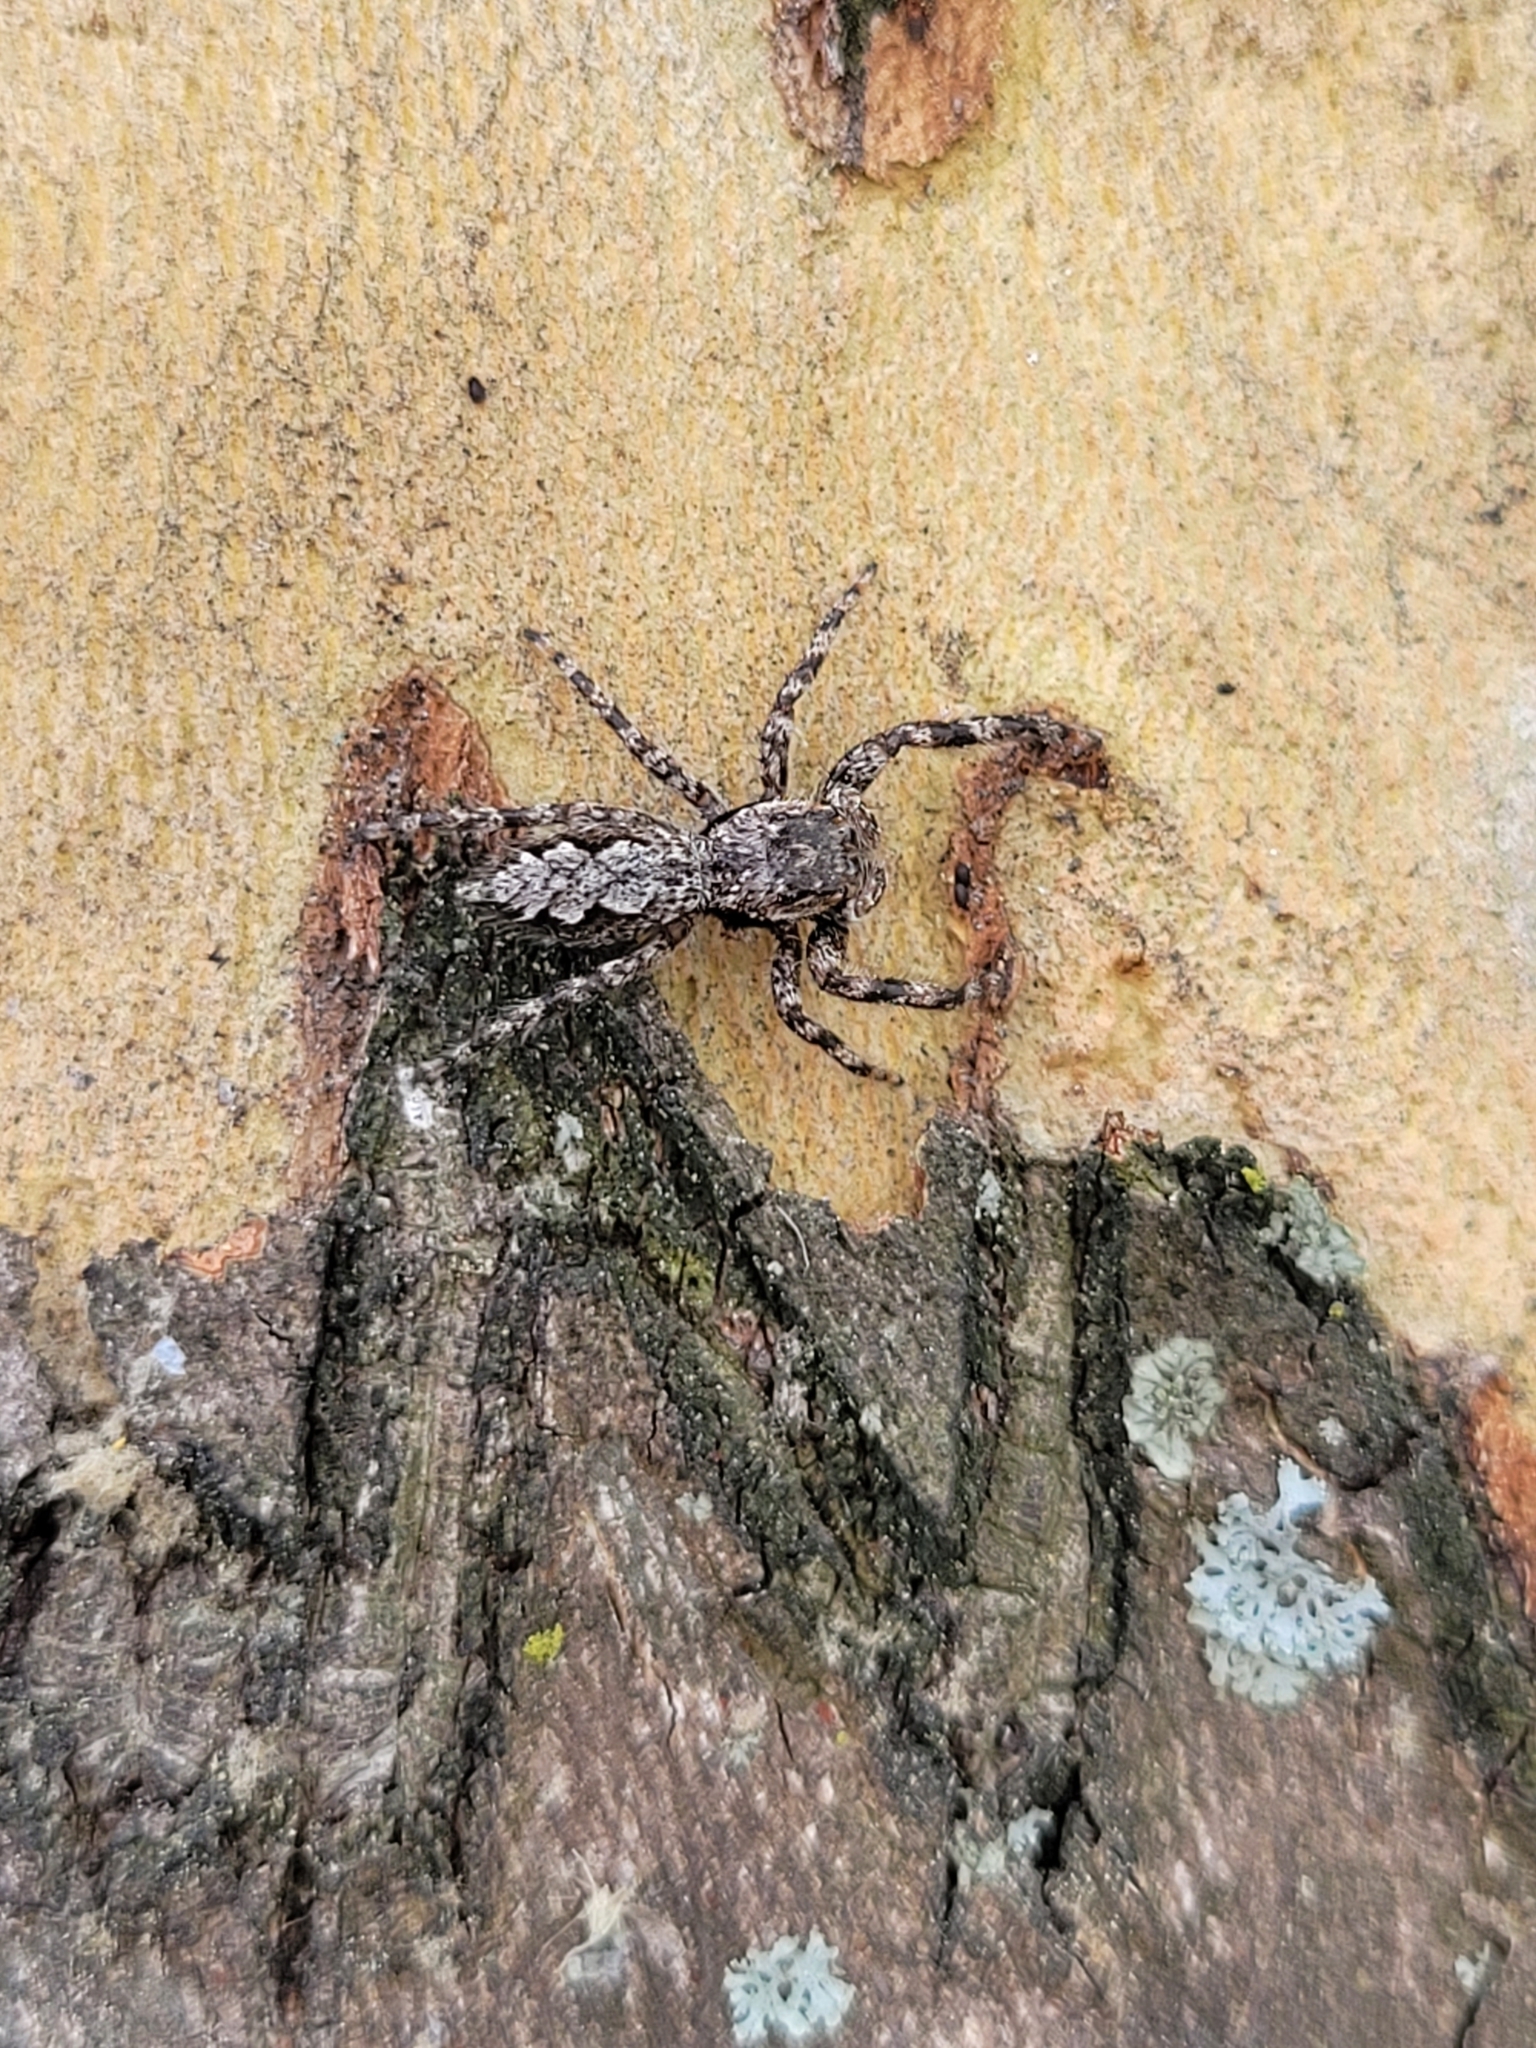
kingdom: Animalia
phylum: Arthropoda
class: Arachnida
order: Araneae
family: Salticidae
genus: Platycryptus
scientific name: Platycryptus undatus
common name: Tan jumping spider
